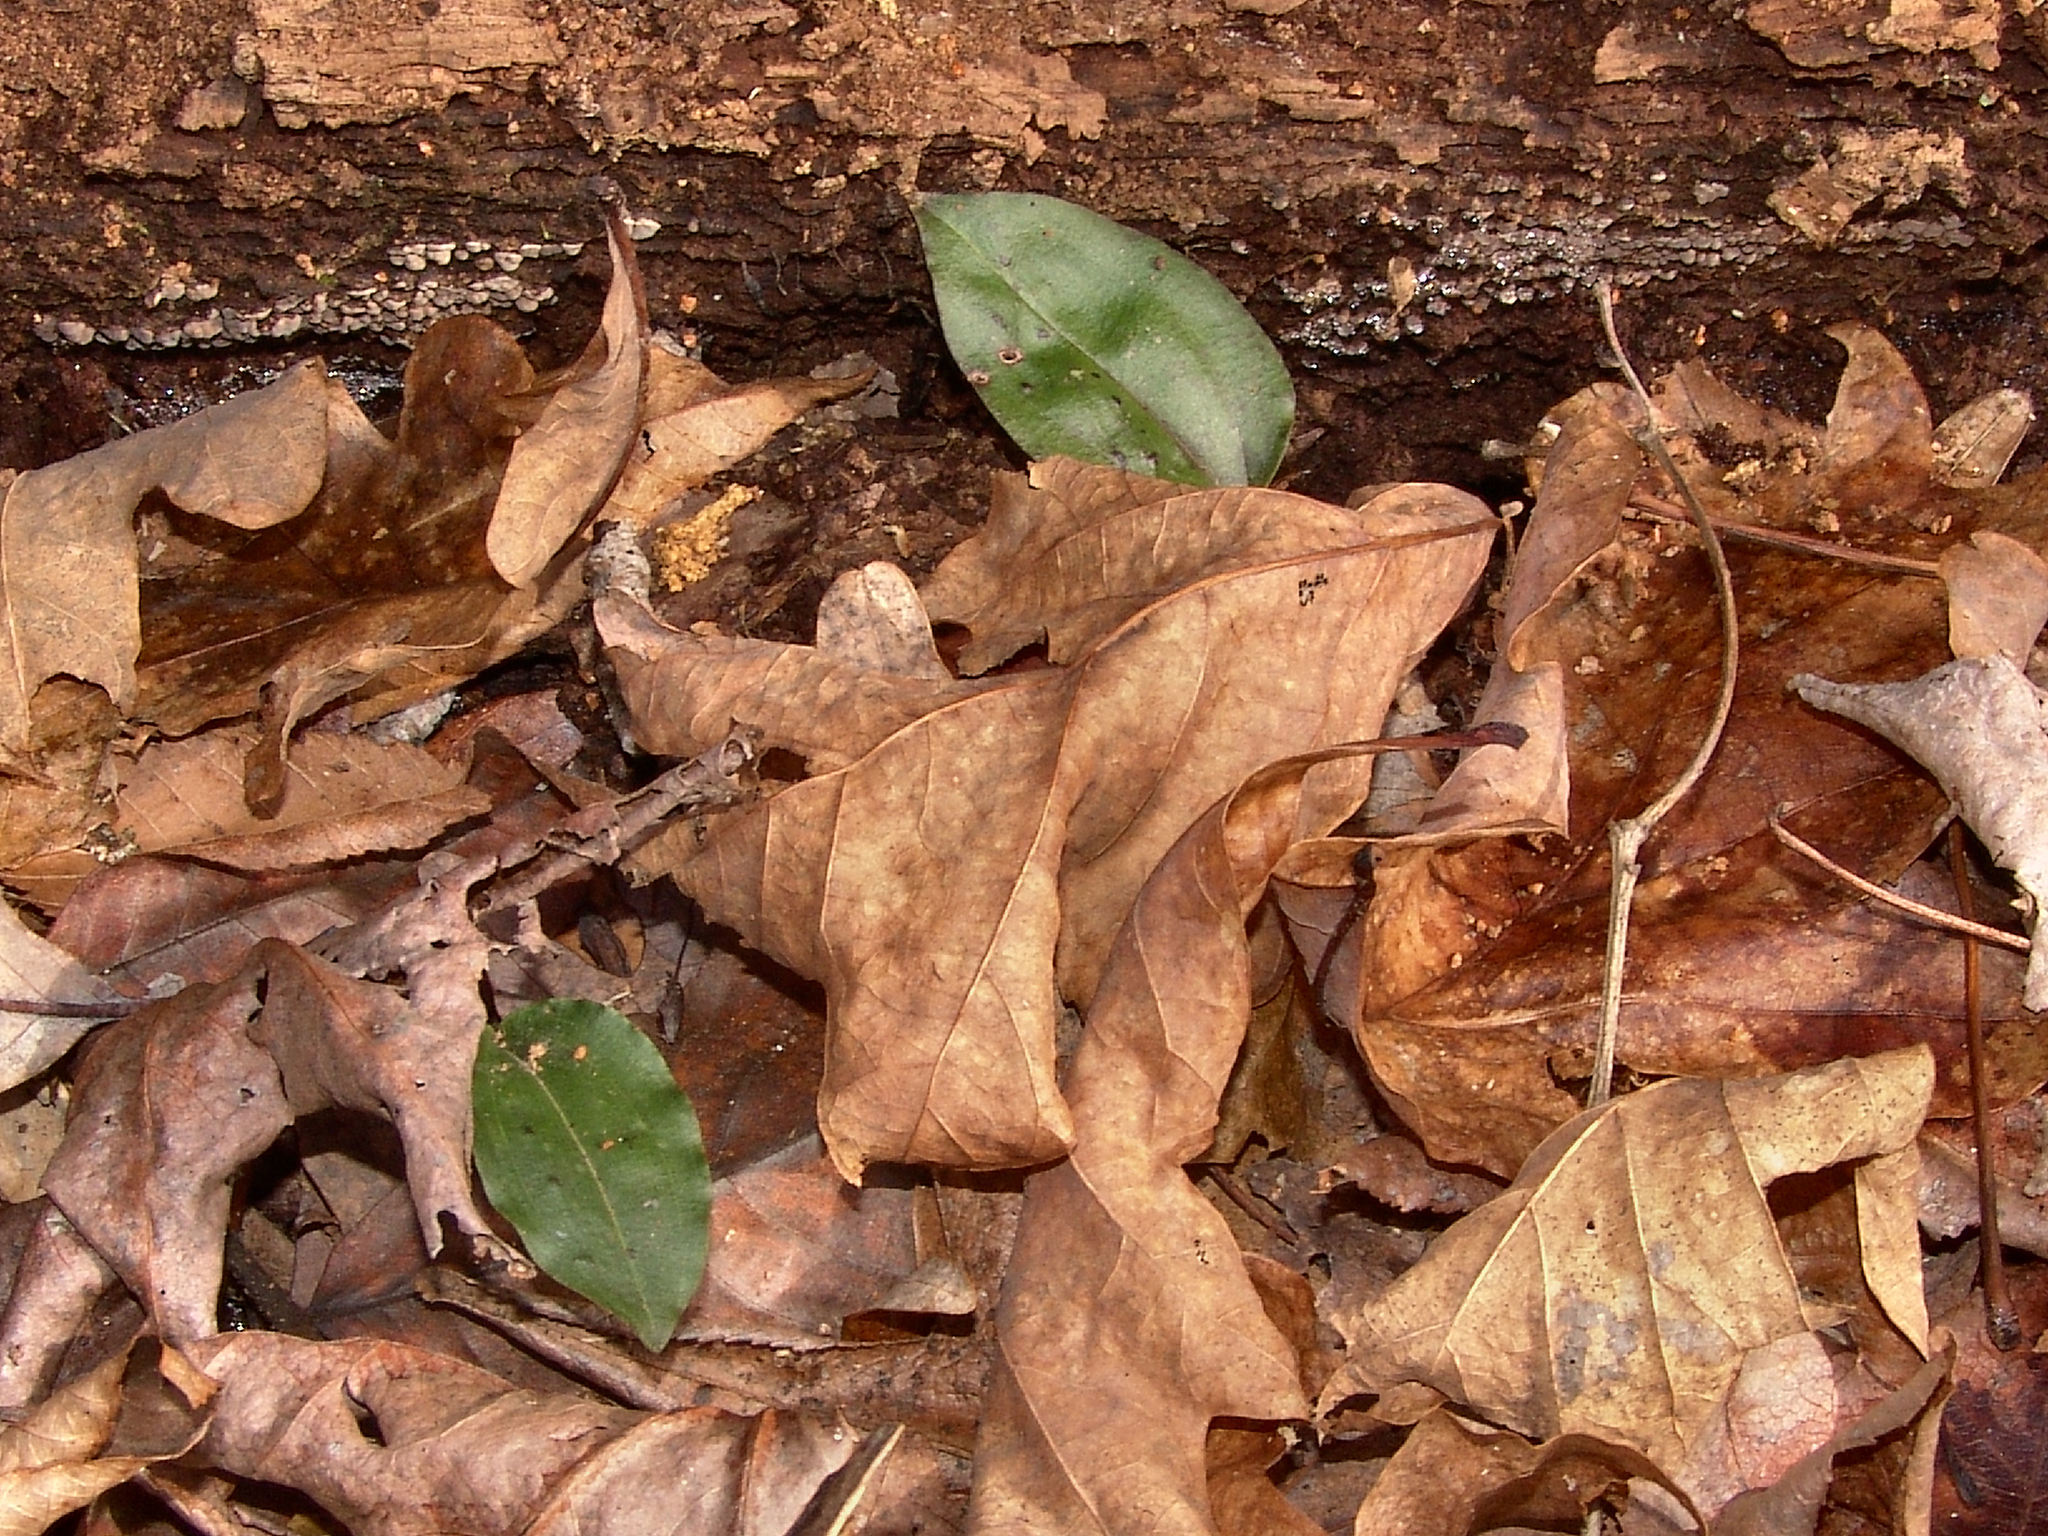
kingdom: Plantae
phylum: Tracheophyta
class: Liliopsida
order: Asparagales
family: Orchidaceae
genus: Tipularia
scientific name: Tipularia discolor
